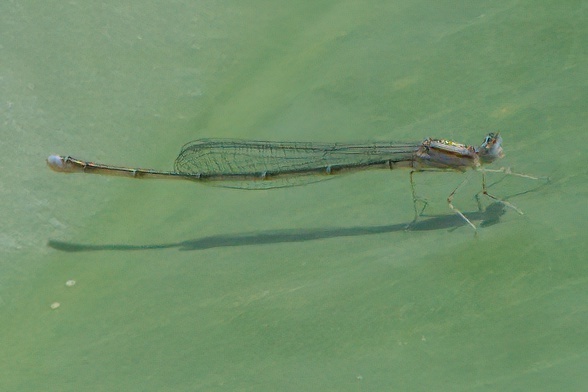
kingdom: Animalia
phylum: Arthropoda
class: Insecta
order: Odonata
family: Coenagrionidae
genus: Enallagma
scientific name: Enallagma vesperum
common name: Vesper bluet
